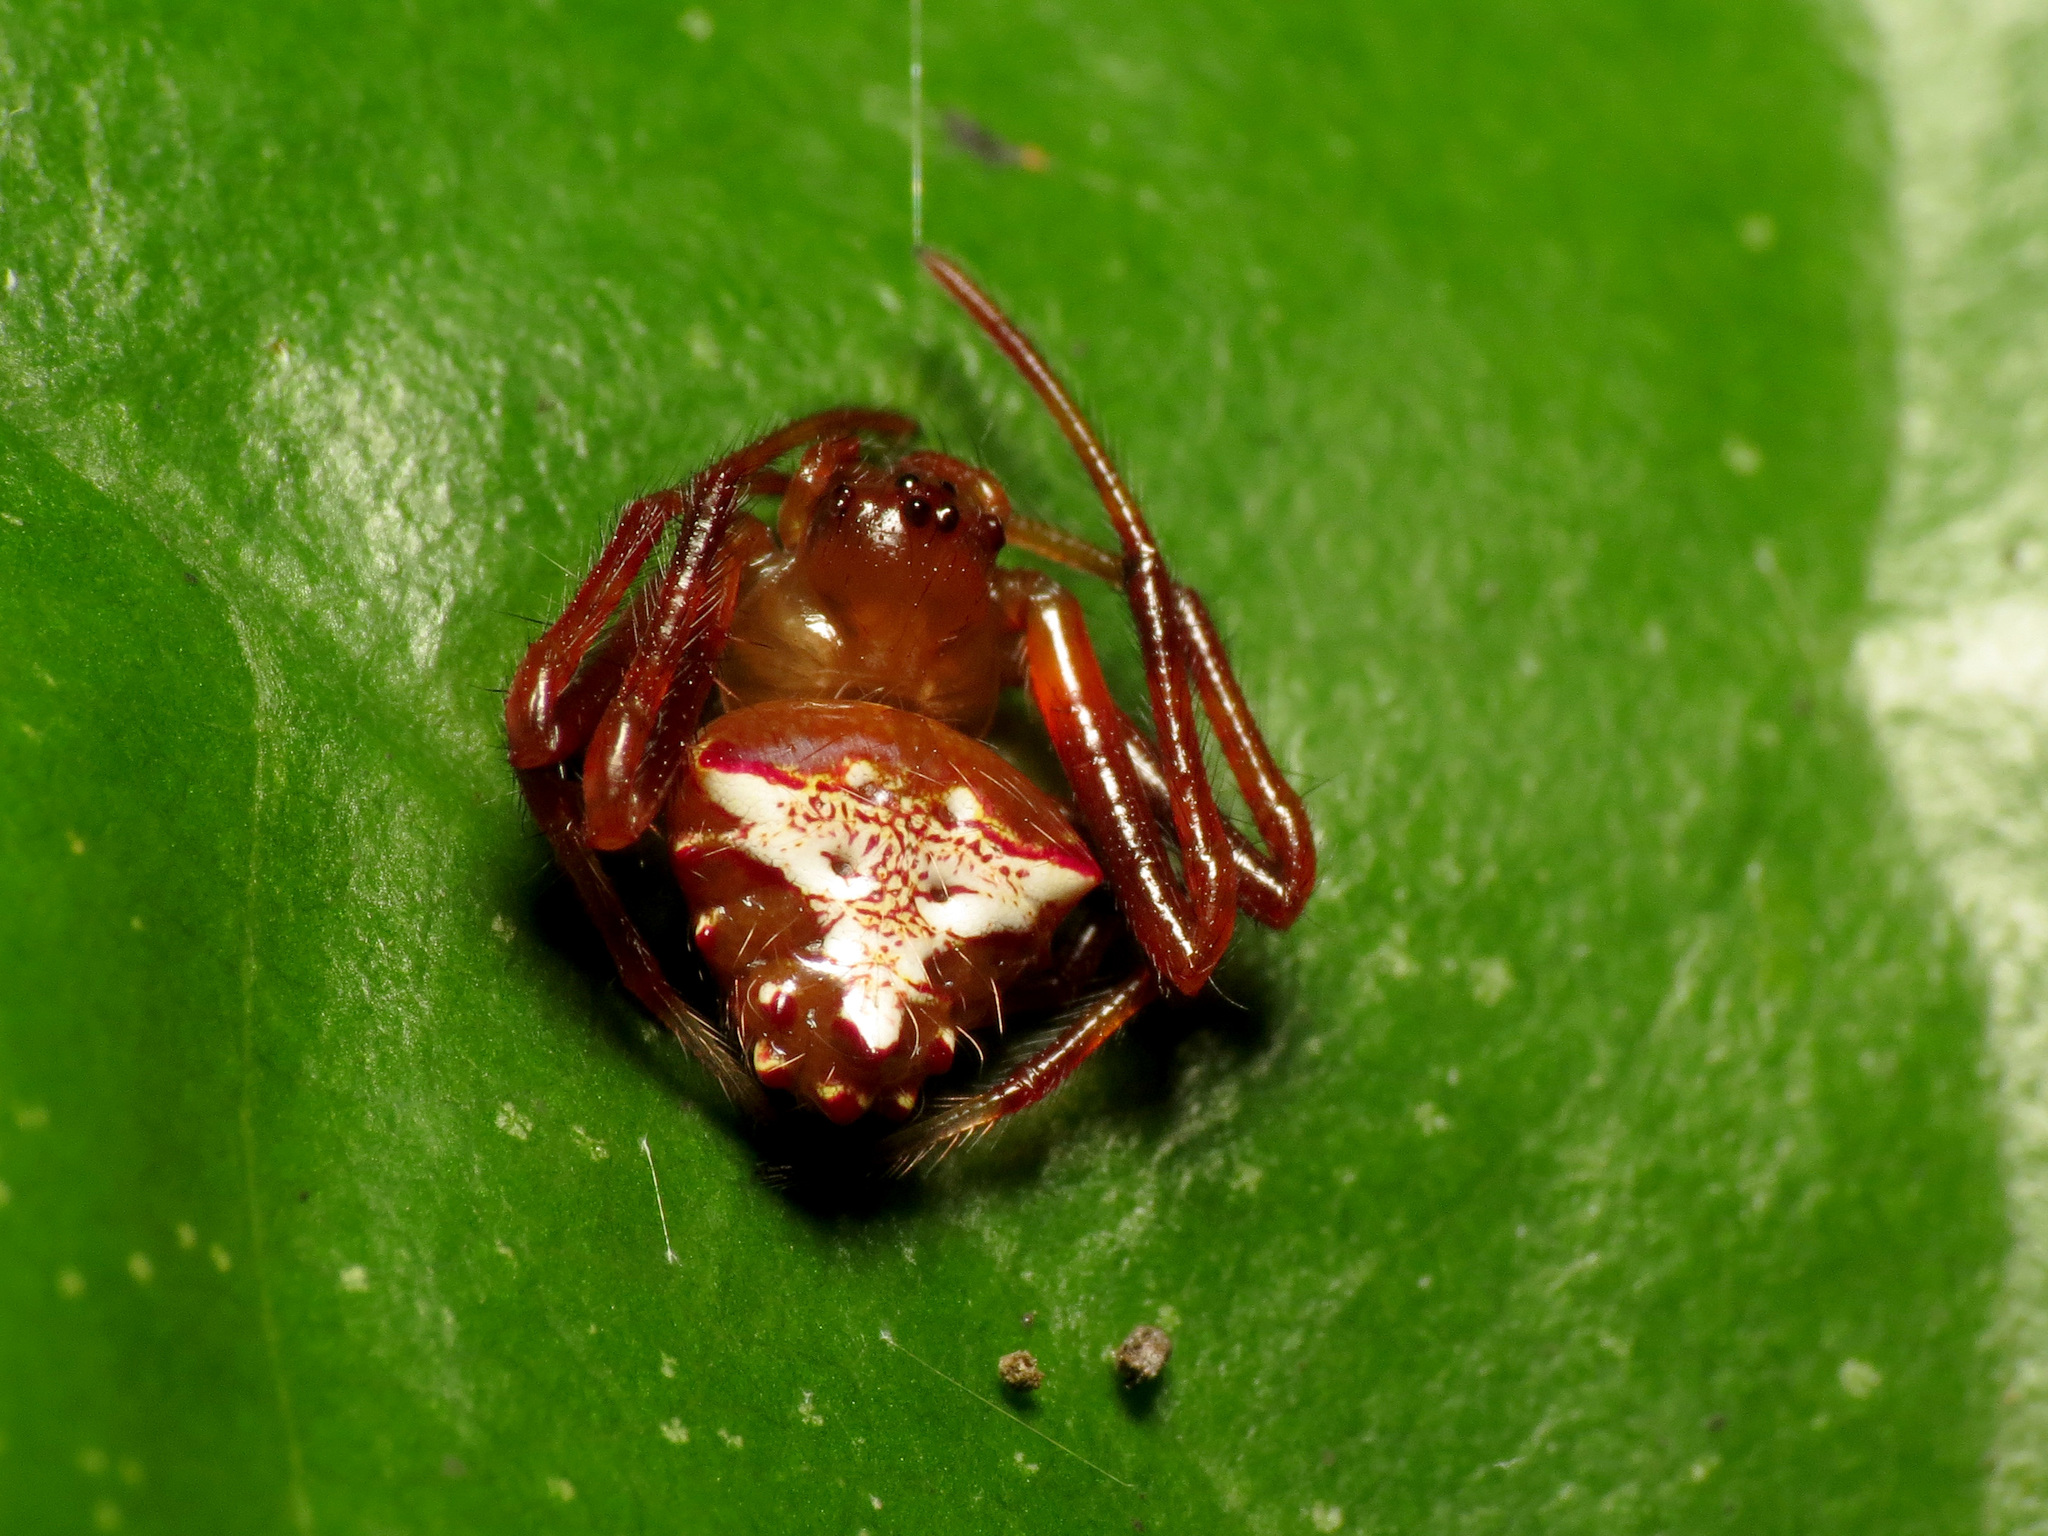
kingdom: Animalia
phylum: Arthropoda
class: Arachnida
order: Araneae
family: Araneidae
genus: Verrucosa
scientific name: Verrucosa arenata
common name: Orb weavers
